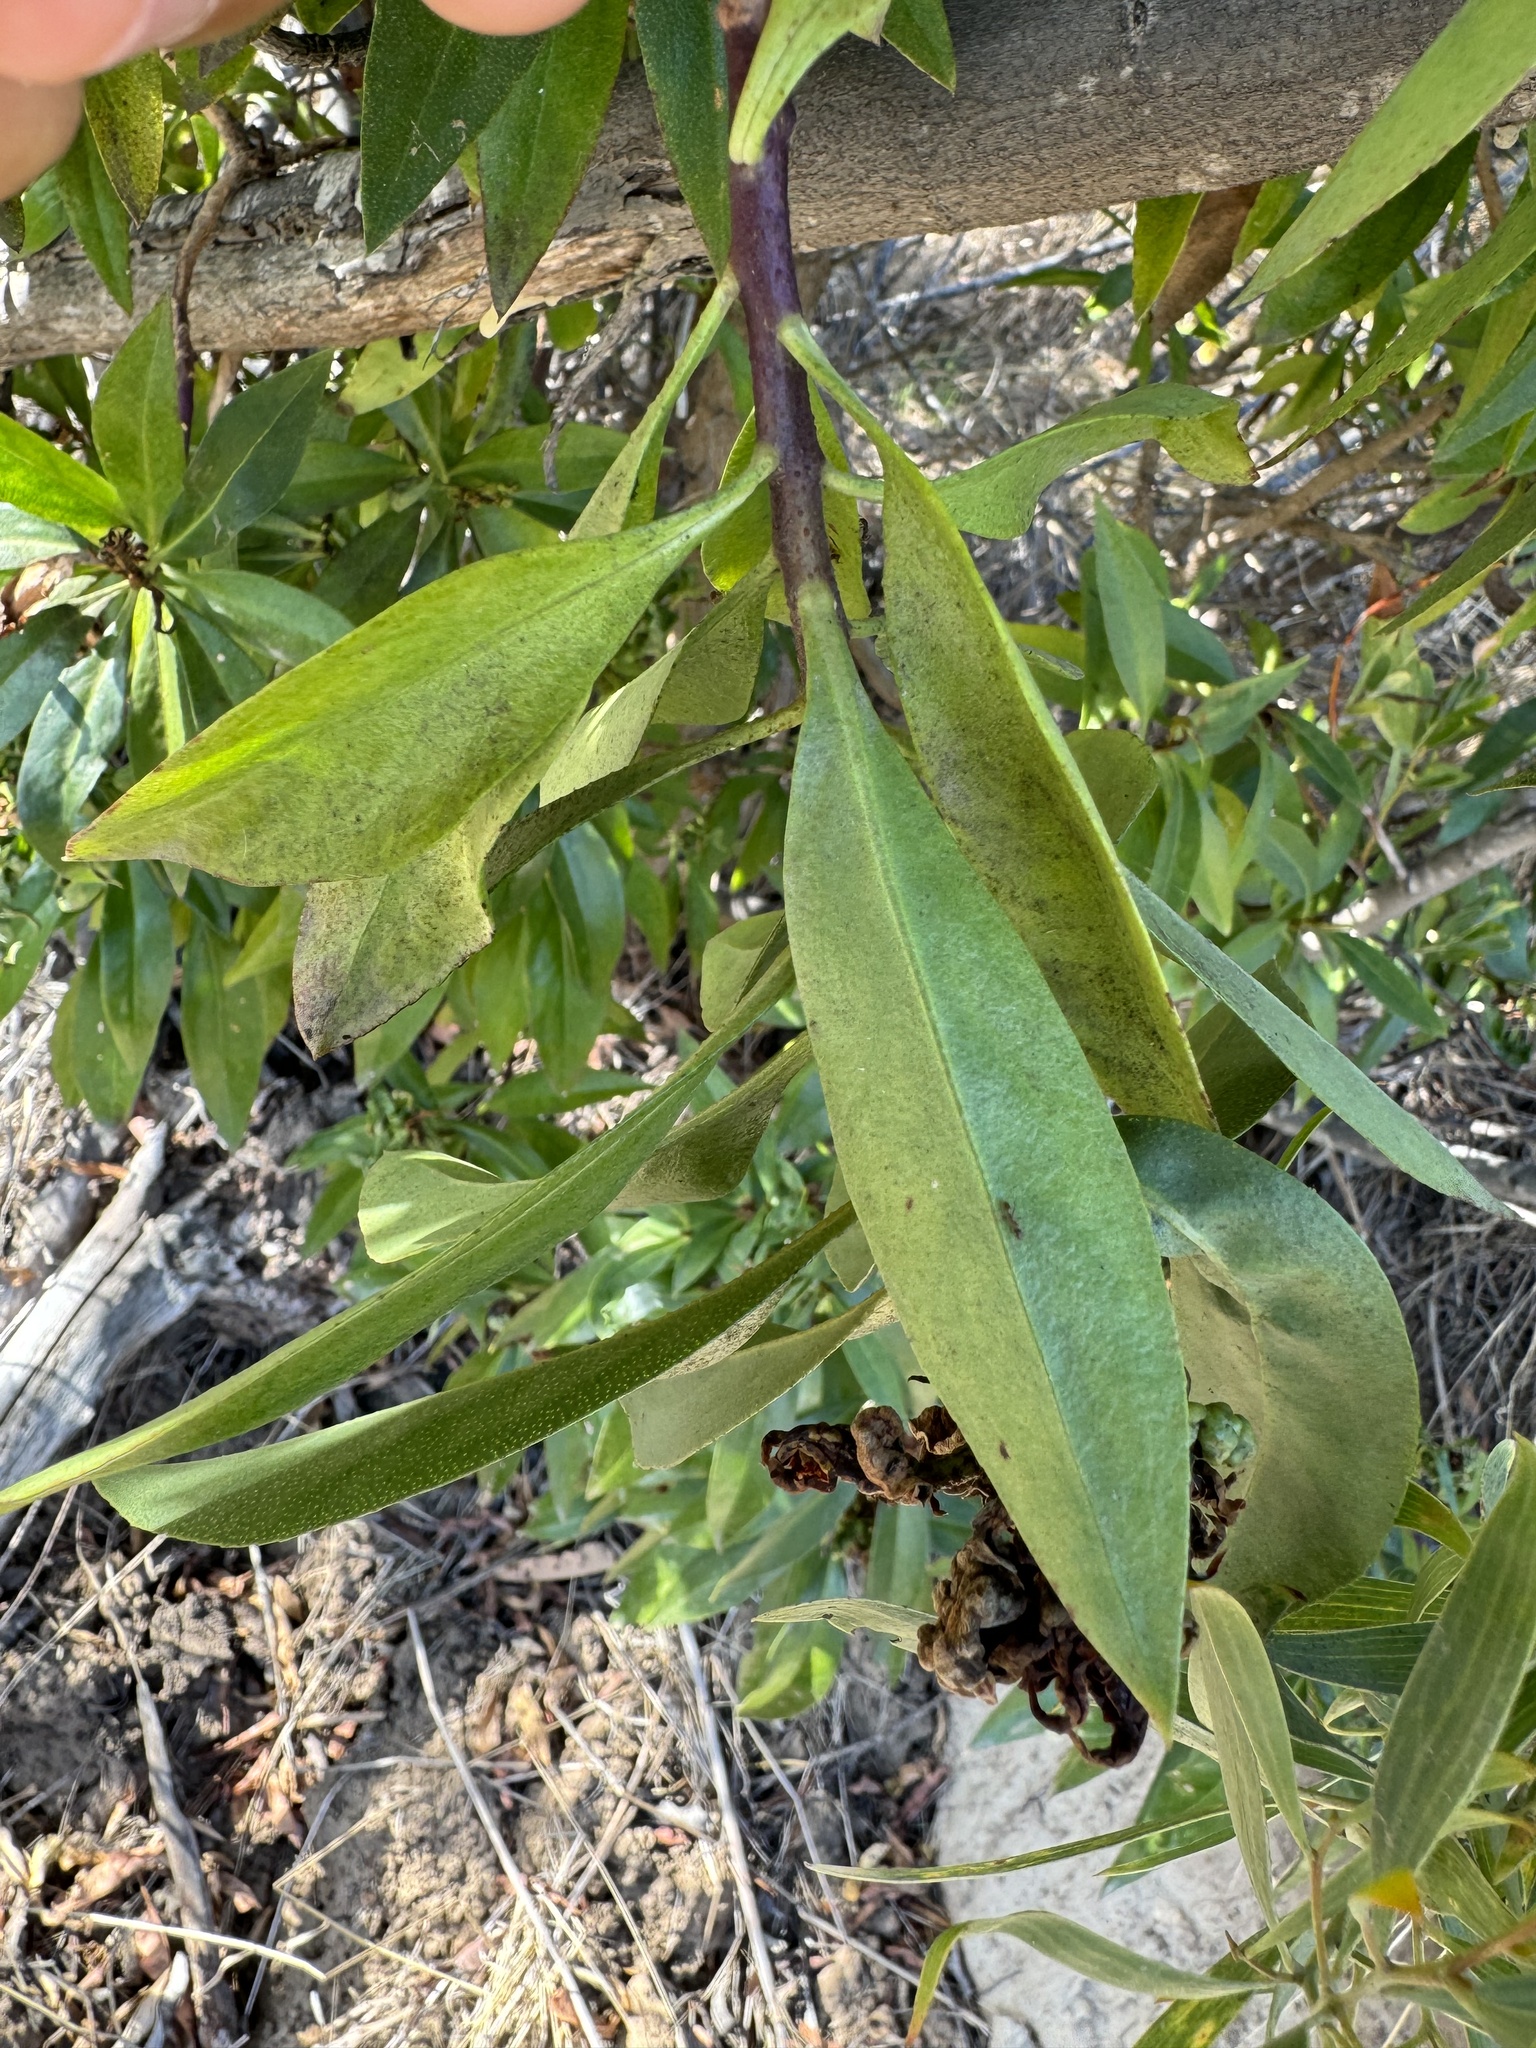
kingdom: Plantae
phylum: Tracheophyta
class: Magnoliopsida
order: Sapindales
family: Anacardiaceae
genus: Malosma
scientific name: Malosma laurina
